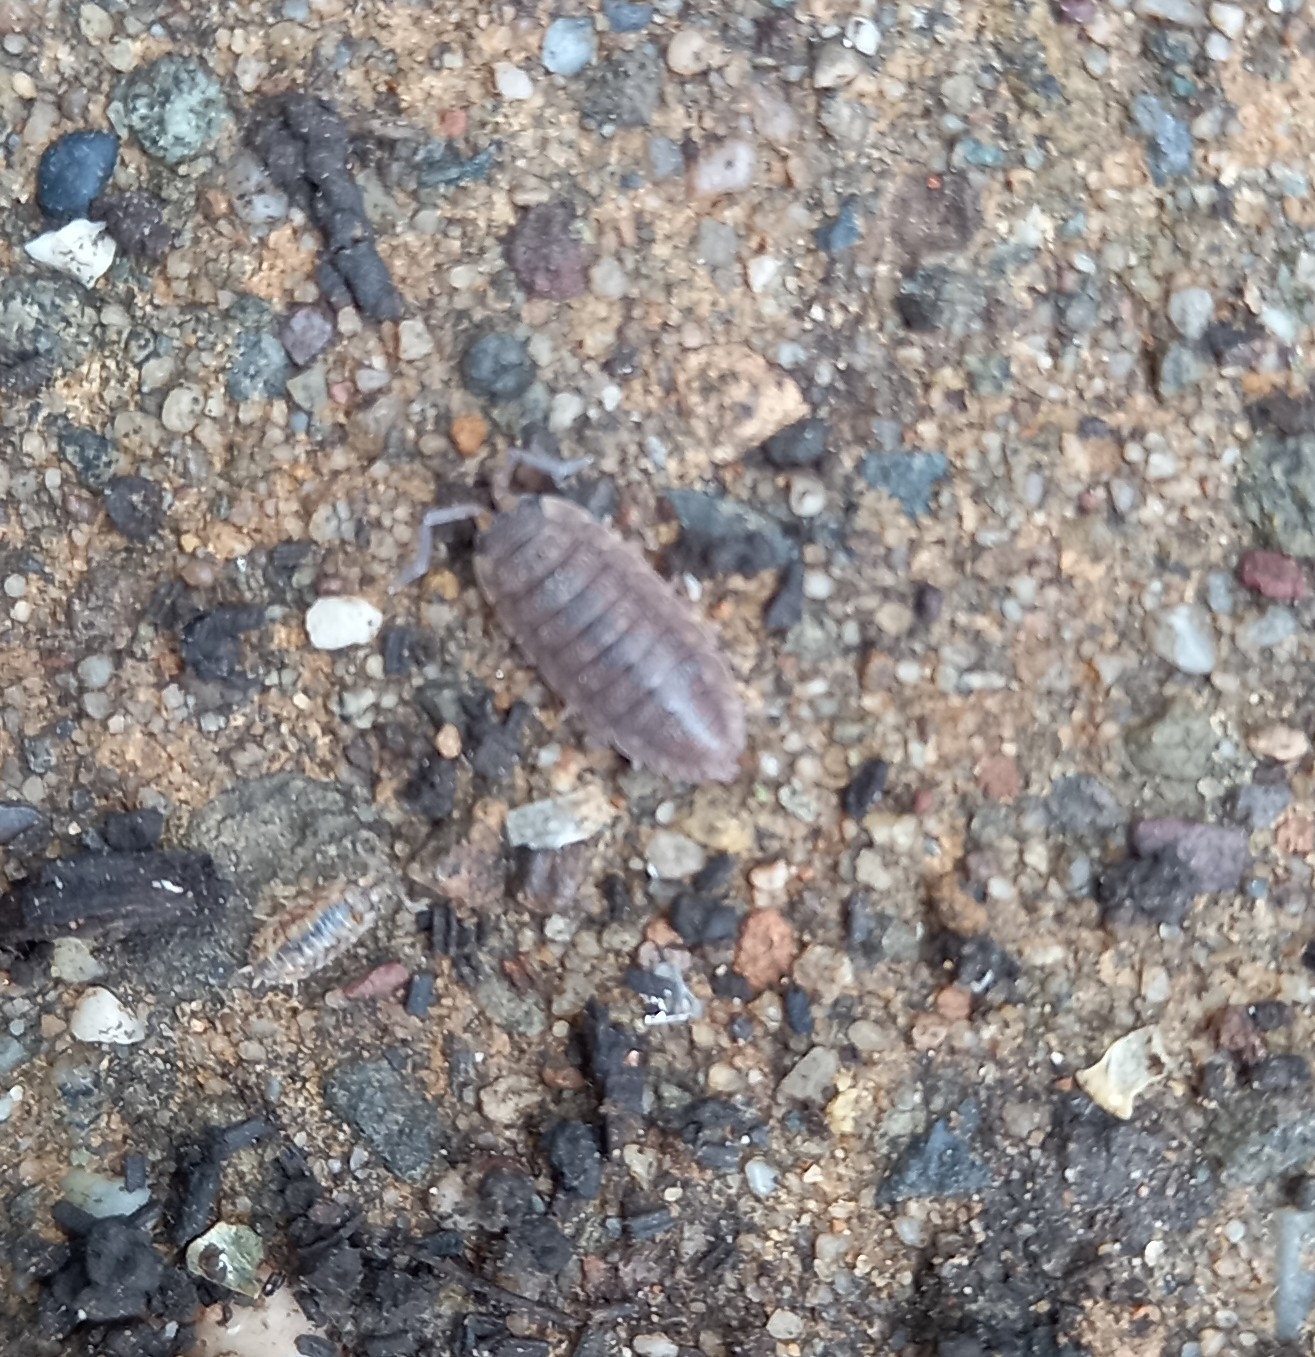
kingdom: Animalia
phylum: Arthropoda
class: Malacostraca
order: Isopoda
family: Porcellionidae
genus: Porcellio
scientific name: Porcellio scaber
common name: Common rough woodlouse
